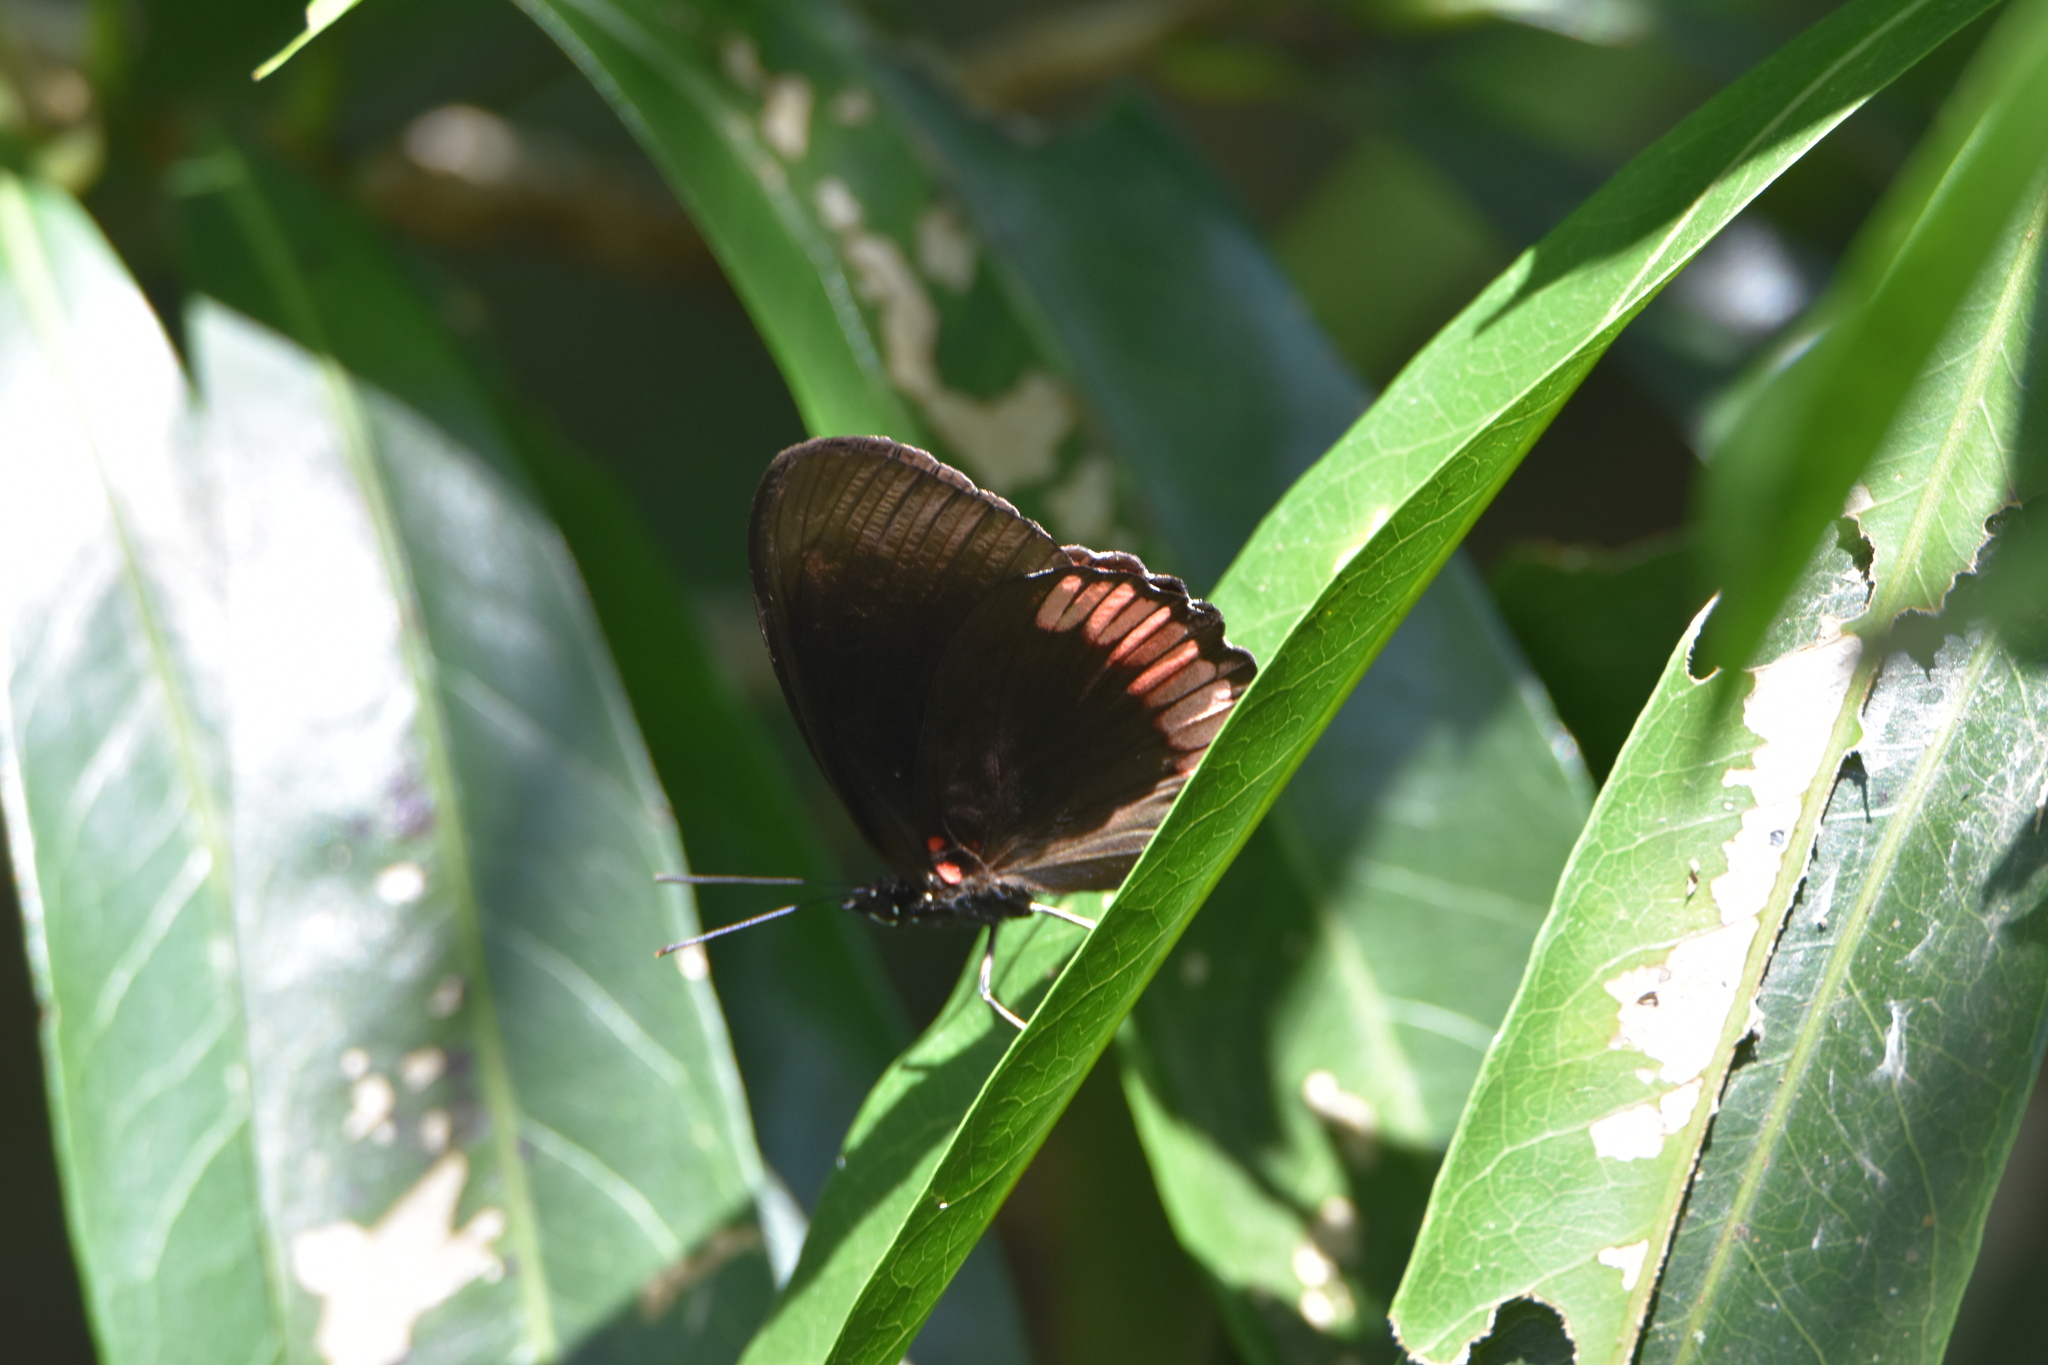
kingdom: Animalia
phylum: Arthropoda
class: Insecta
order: Lepidoptera
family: Sesiidae
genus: Sesia
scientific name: Sesia Biblis hyperia
